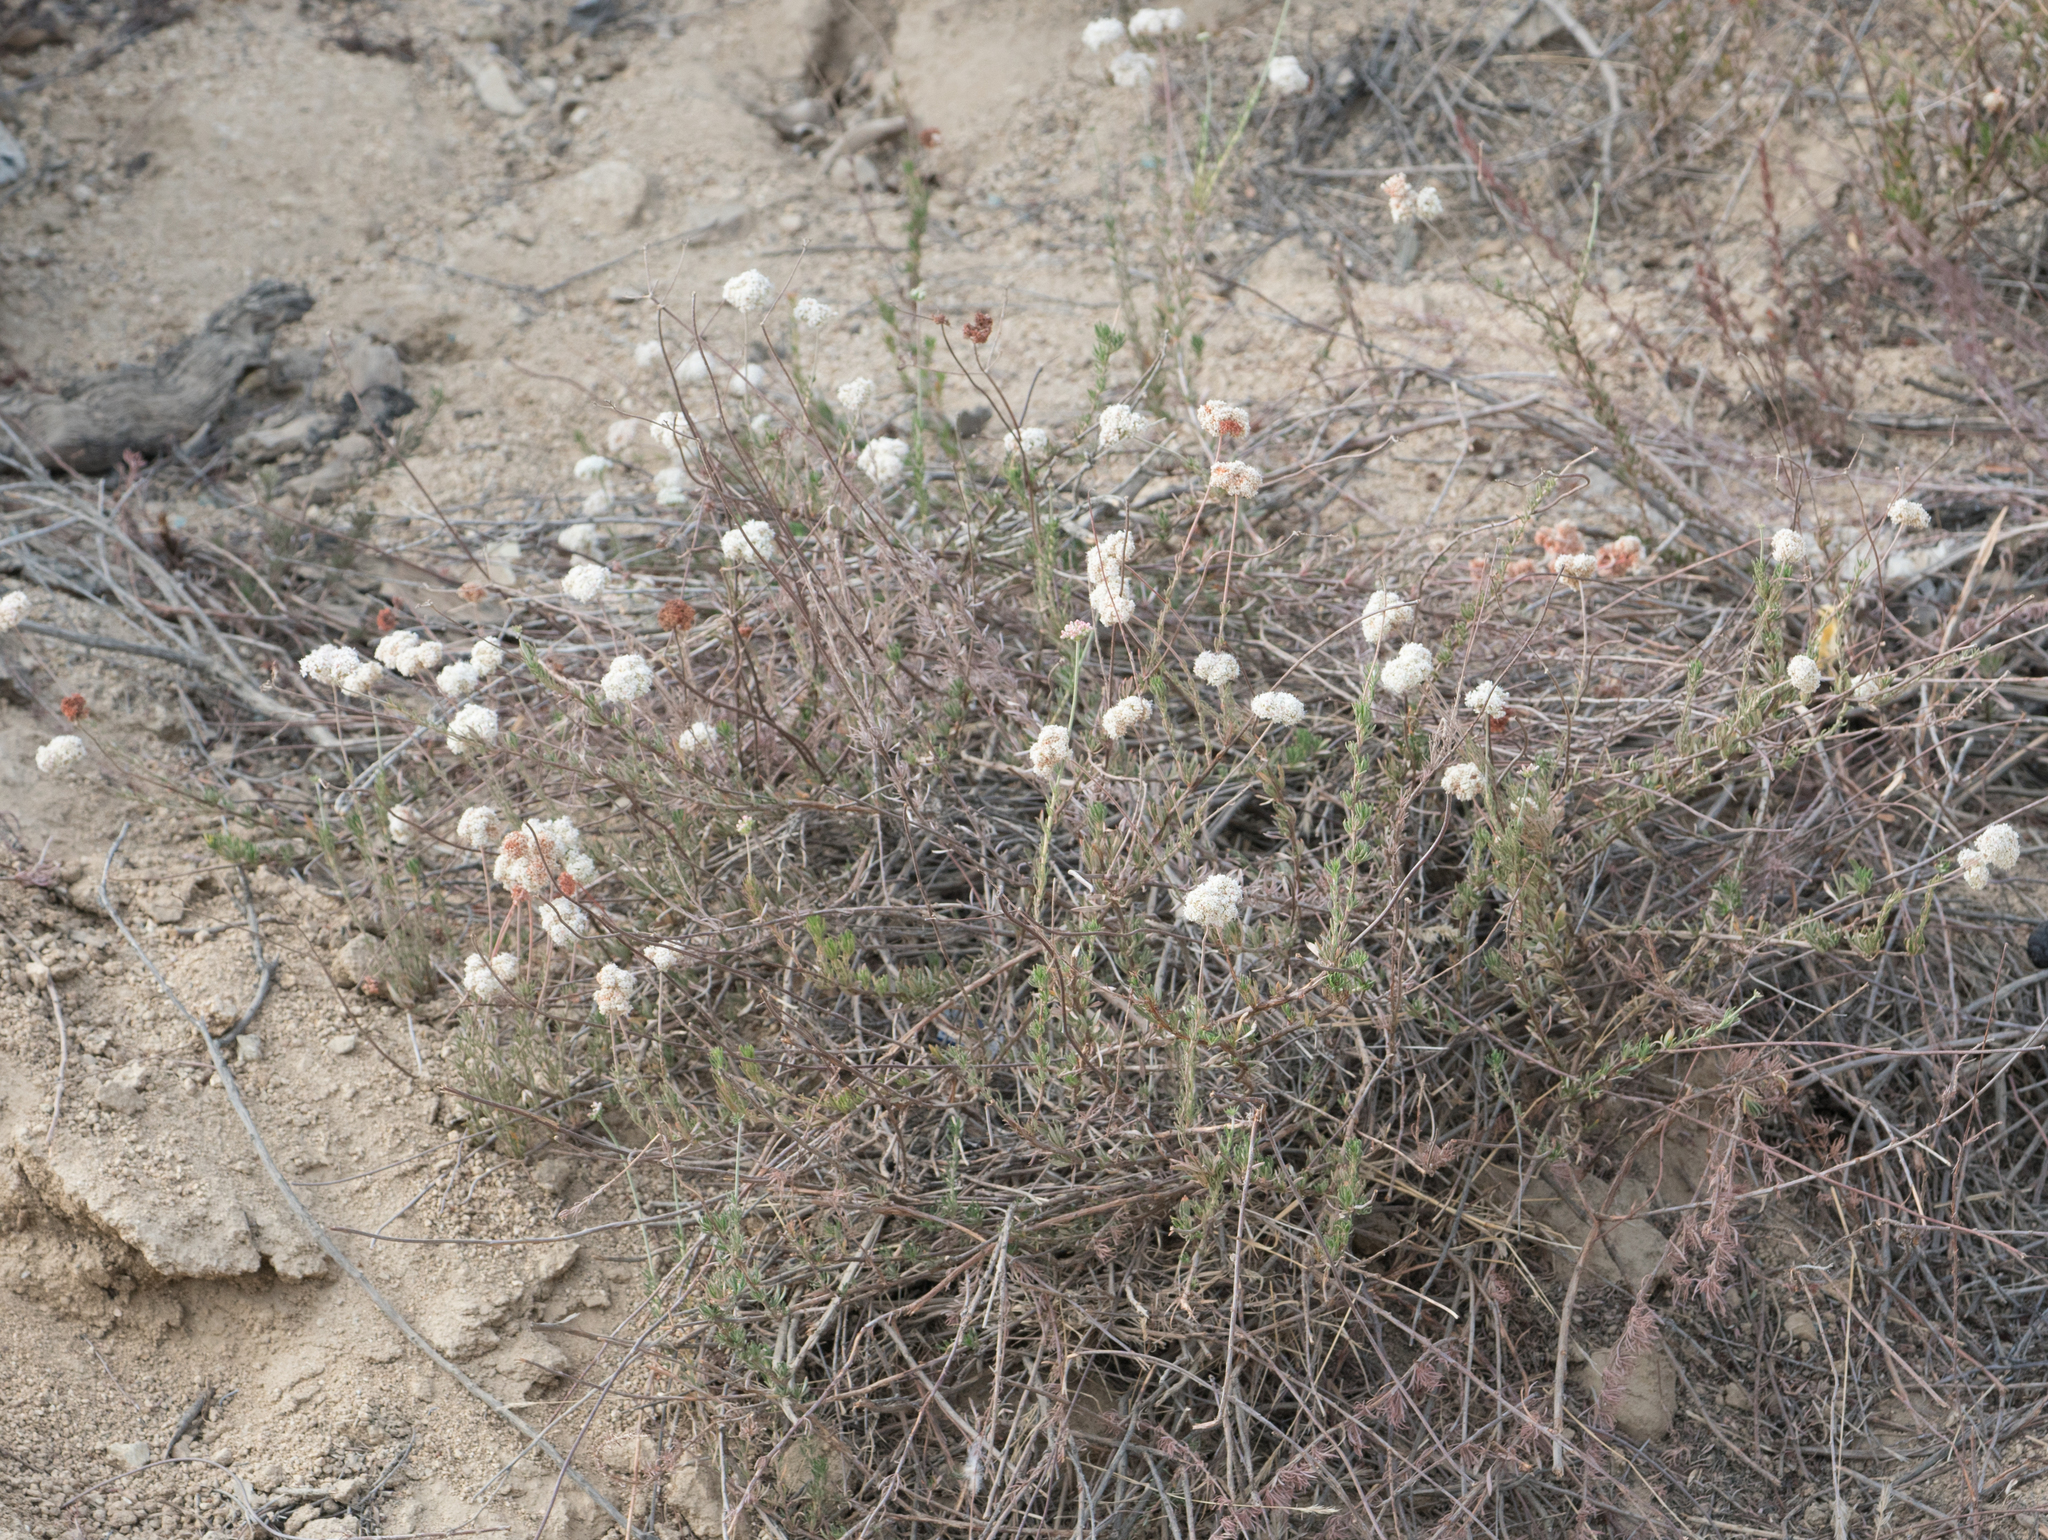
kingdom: Plantae
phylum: Tracheophyta
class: Magnoliopsida
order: Caryophyllales
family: Polygonaceae
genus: Eriogonum
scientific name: Eriogonum fasciculatum
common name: California wild buckwheat
